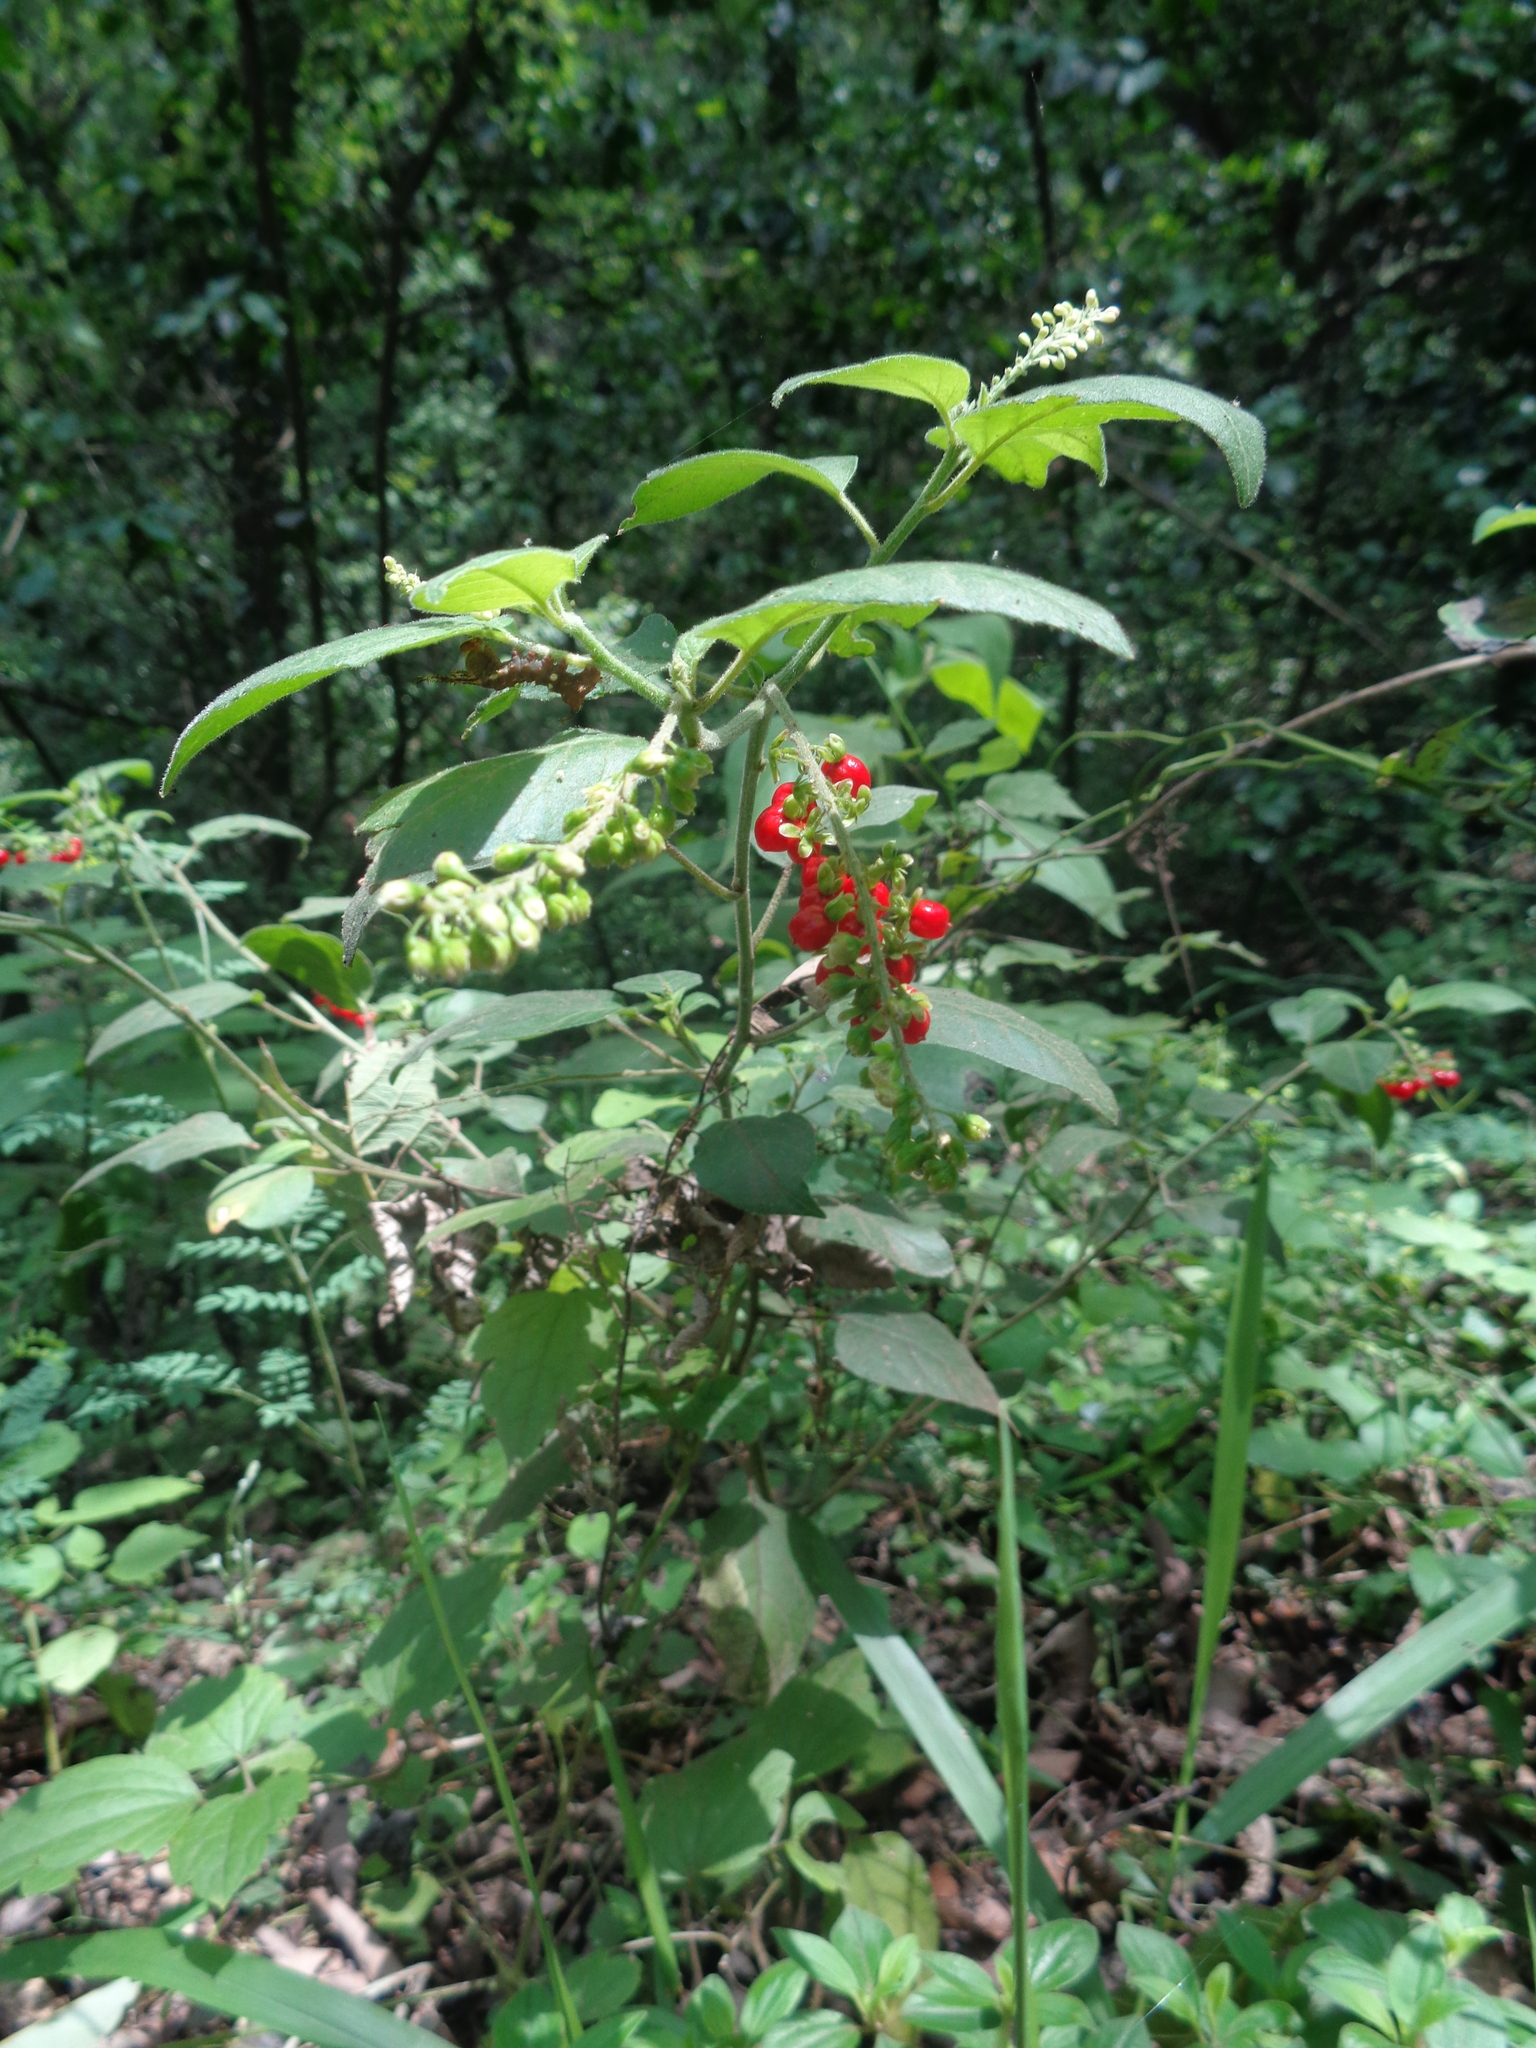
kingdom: Plantae
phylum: Tracheophyta
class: Magnoliopsida
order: Caryophyllales
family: Phytolaccaceae
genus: Rivina
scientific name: Rivina humilis
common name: Rougeplant
